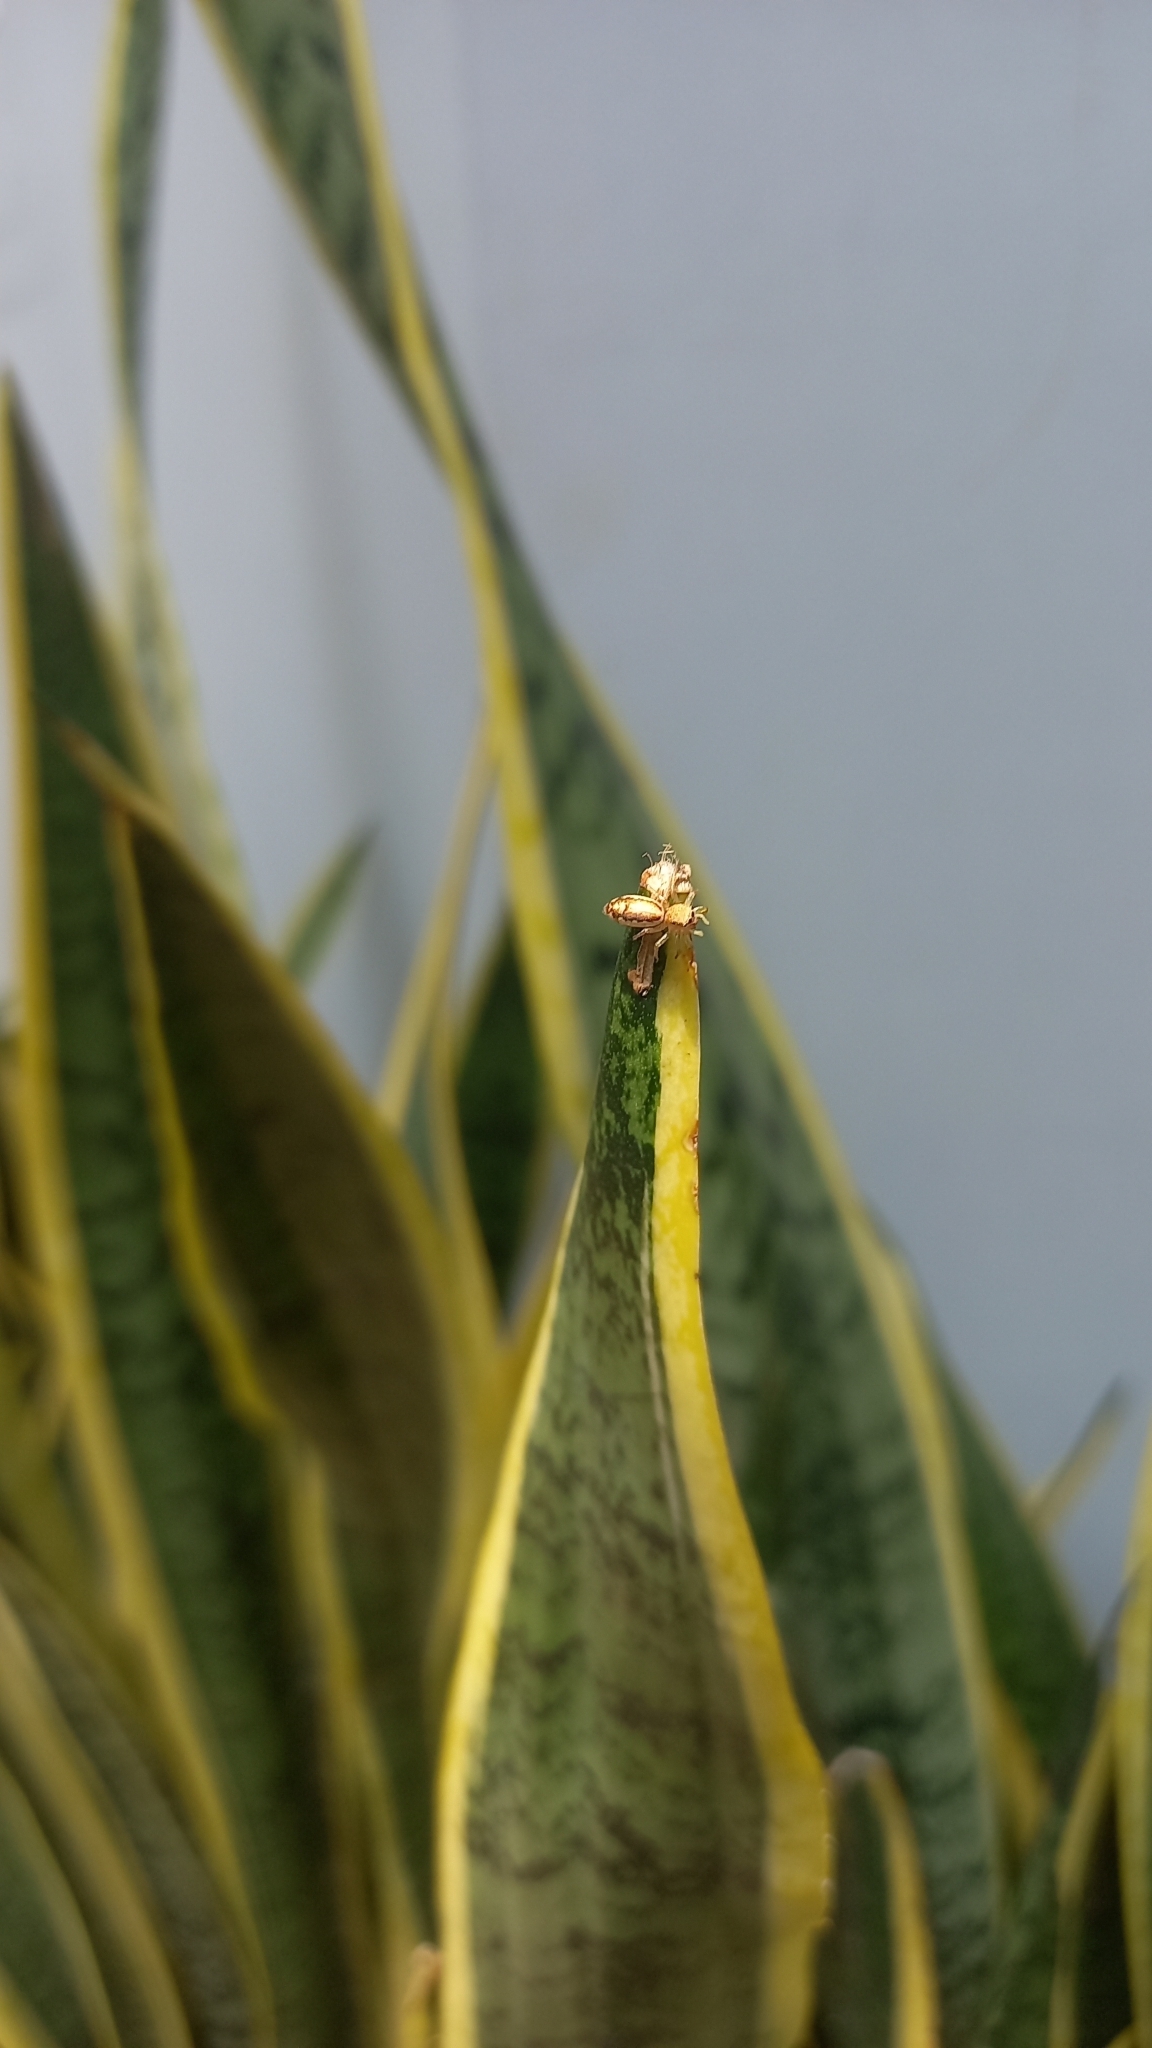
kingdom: Animalia
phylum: Arthropoda
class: Arachnida
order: Araneae
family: Salticidae
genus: Cosmophasis
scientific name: Cosmophasis lami
